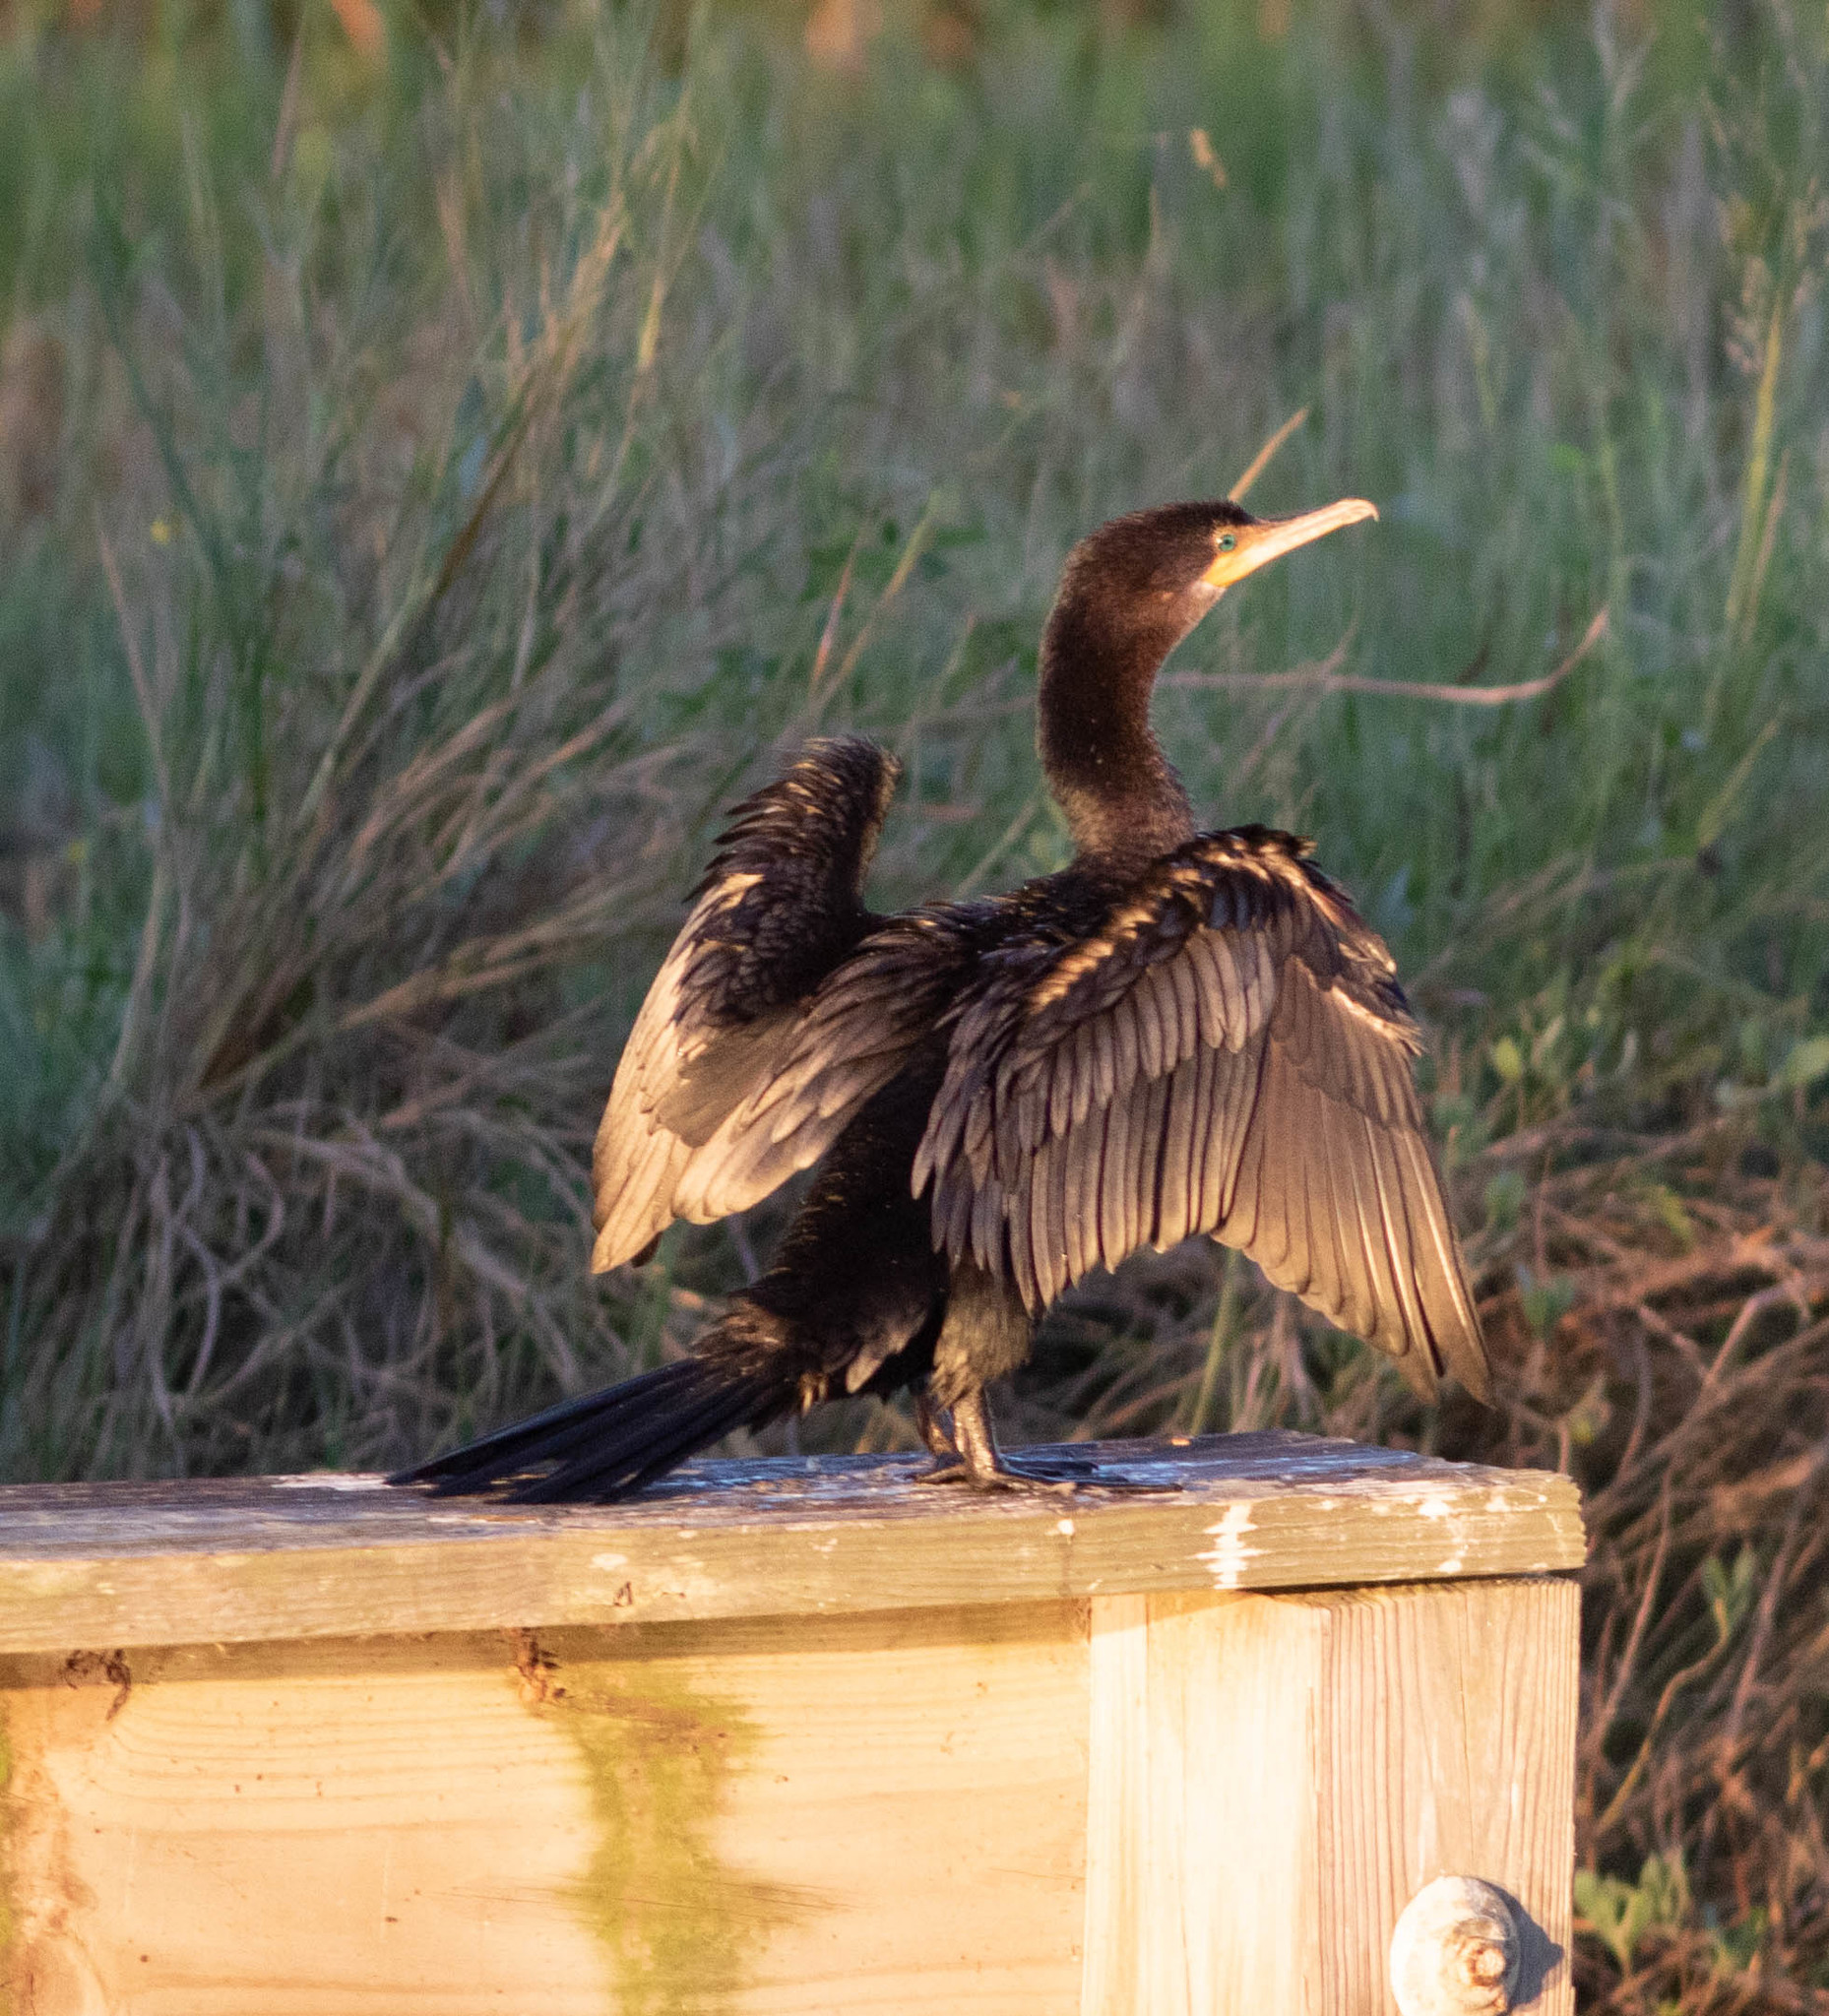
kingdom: Animalia
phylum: Chordata
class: Aves
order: Suliformes
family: Phalacrocoracidae
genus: Phalacrocorax
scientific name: Phalacrocorax auritus
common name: Double-crested cormorant
